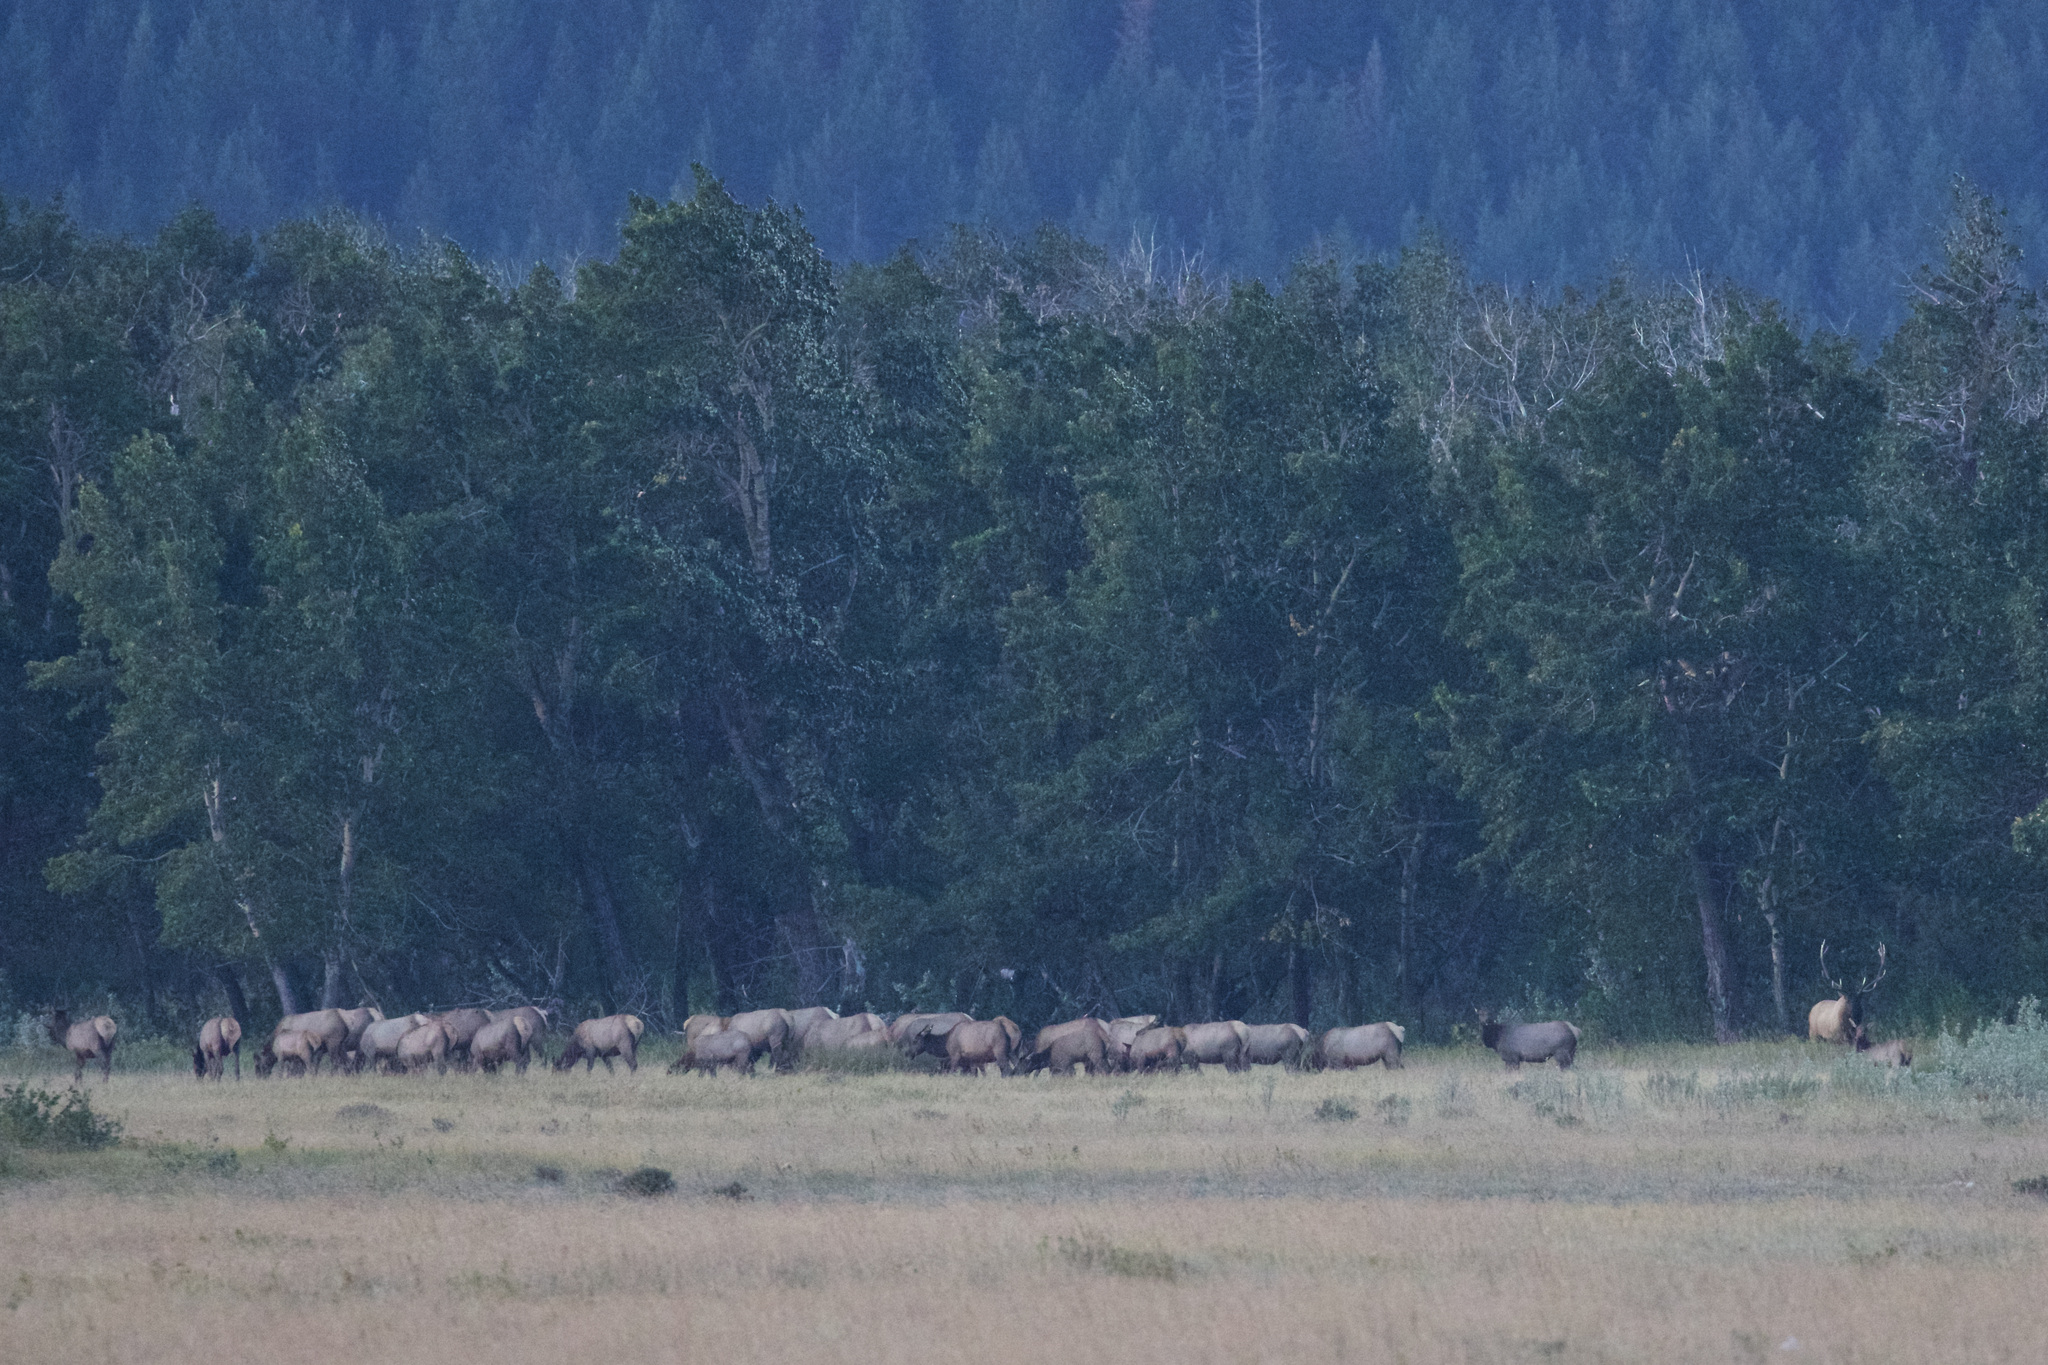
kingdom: Animalia
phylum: Chordata
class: Mammalia
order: Artiodactyla
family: Cervidae
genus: Cervus
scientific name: Cervus elaphus
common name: Red deer
